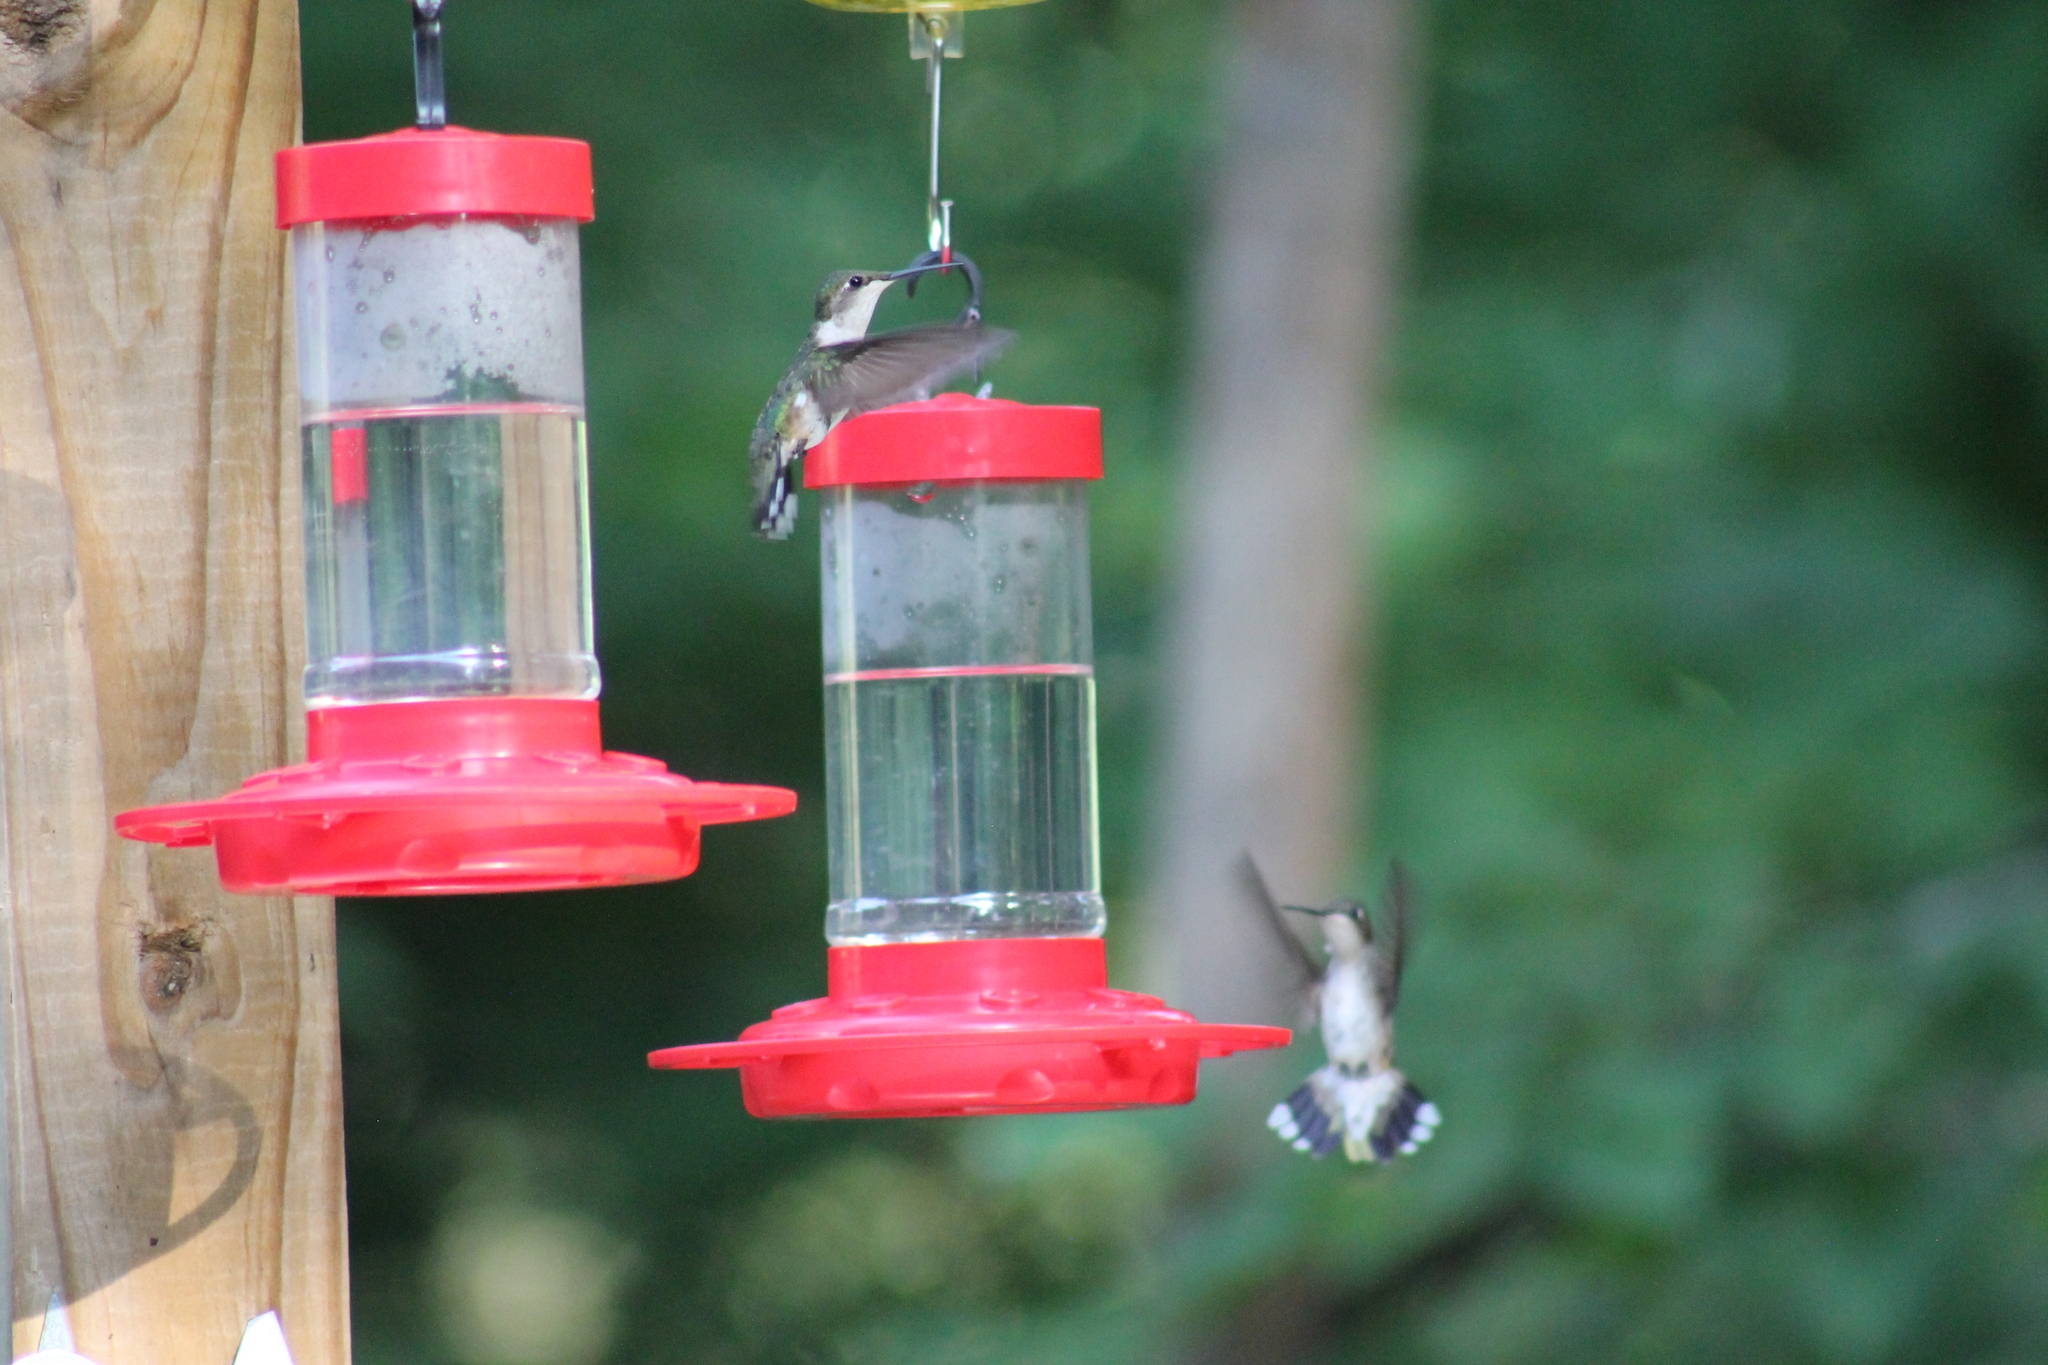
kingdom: Animalia
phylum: Chordata
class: Aves
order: Apodiformes
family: Trochilidae
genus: Archilochus
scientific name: Archilochus colubris
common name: Ruby-throated hummingbird
